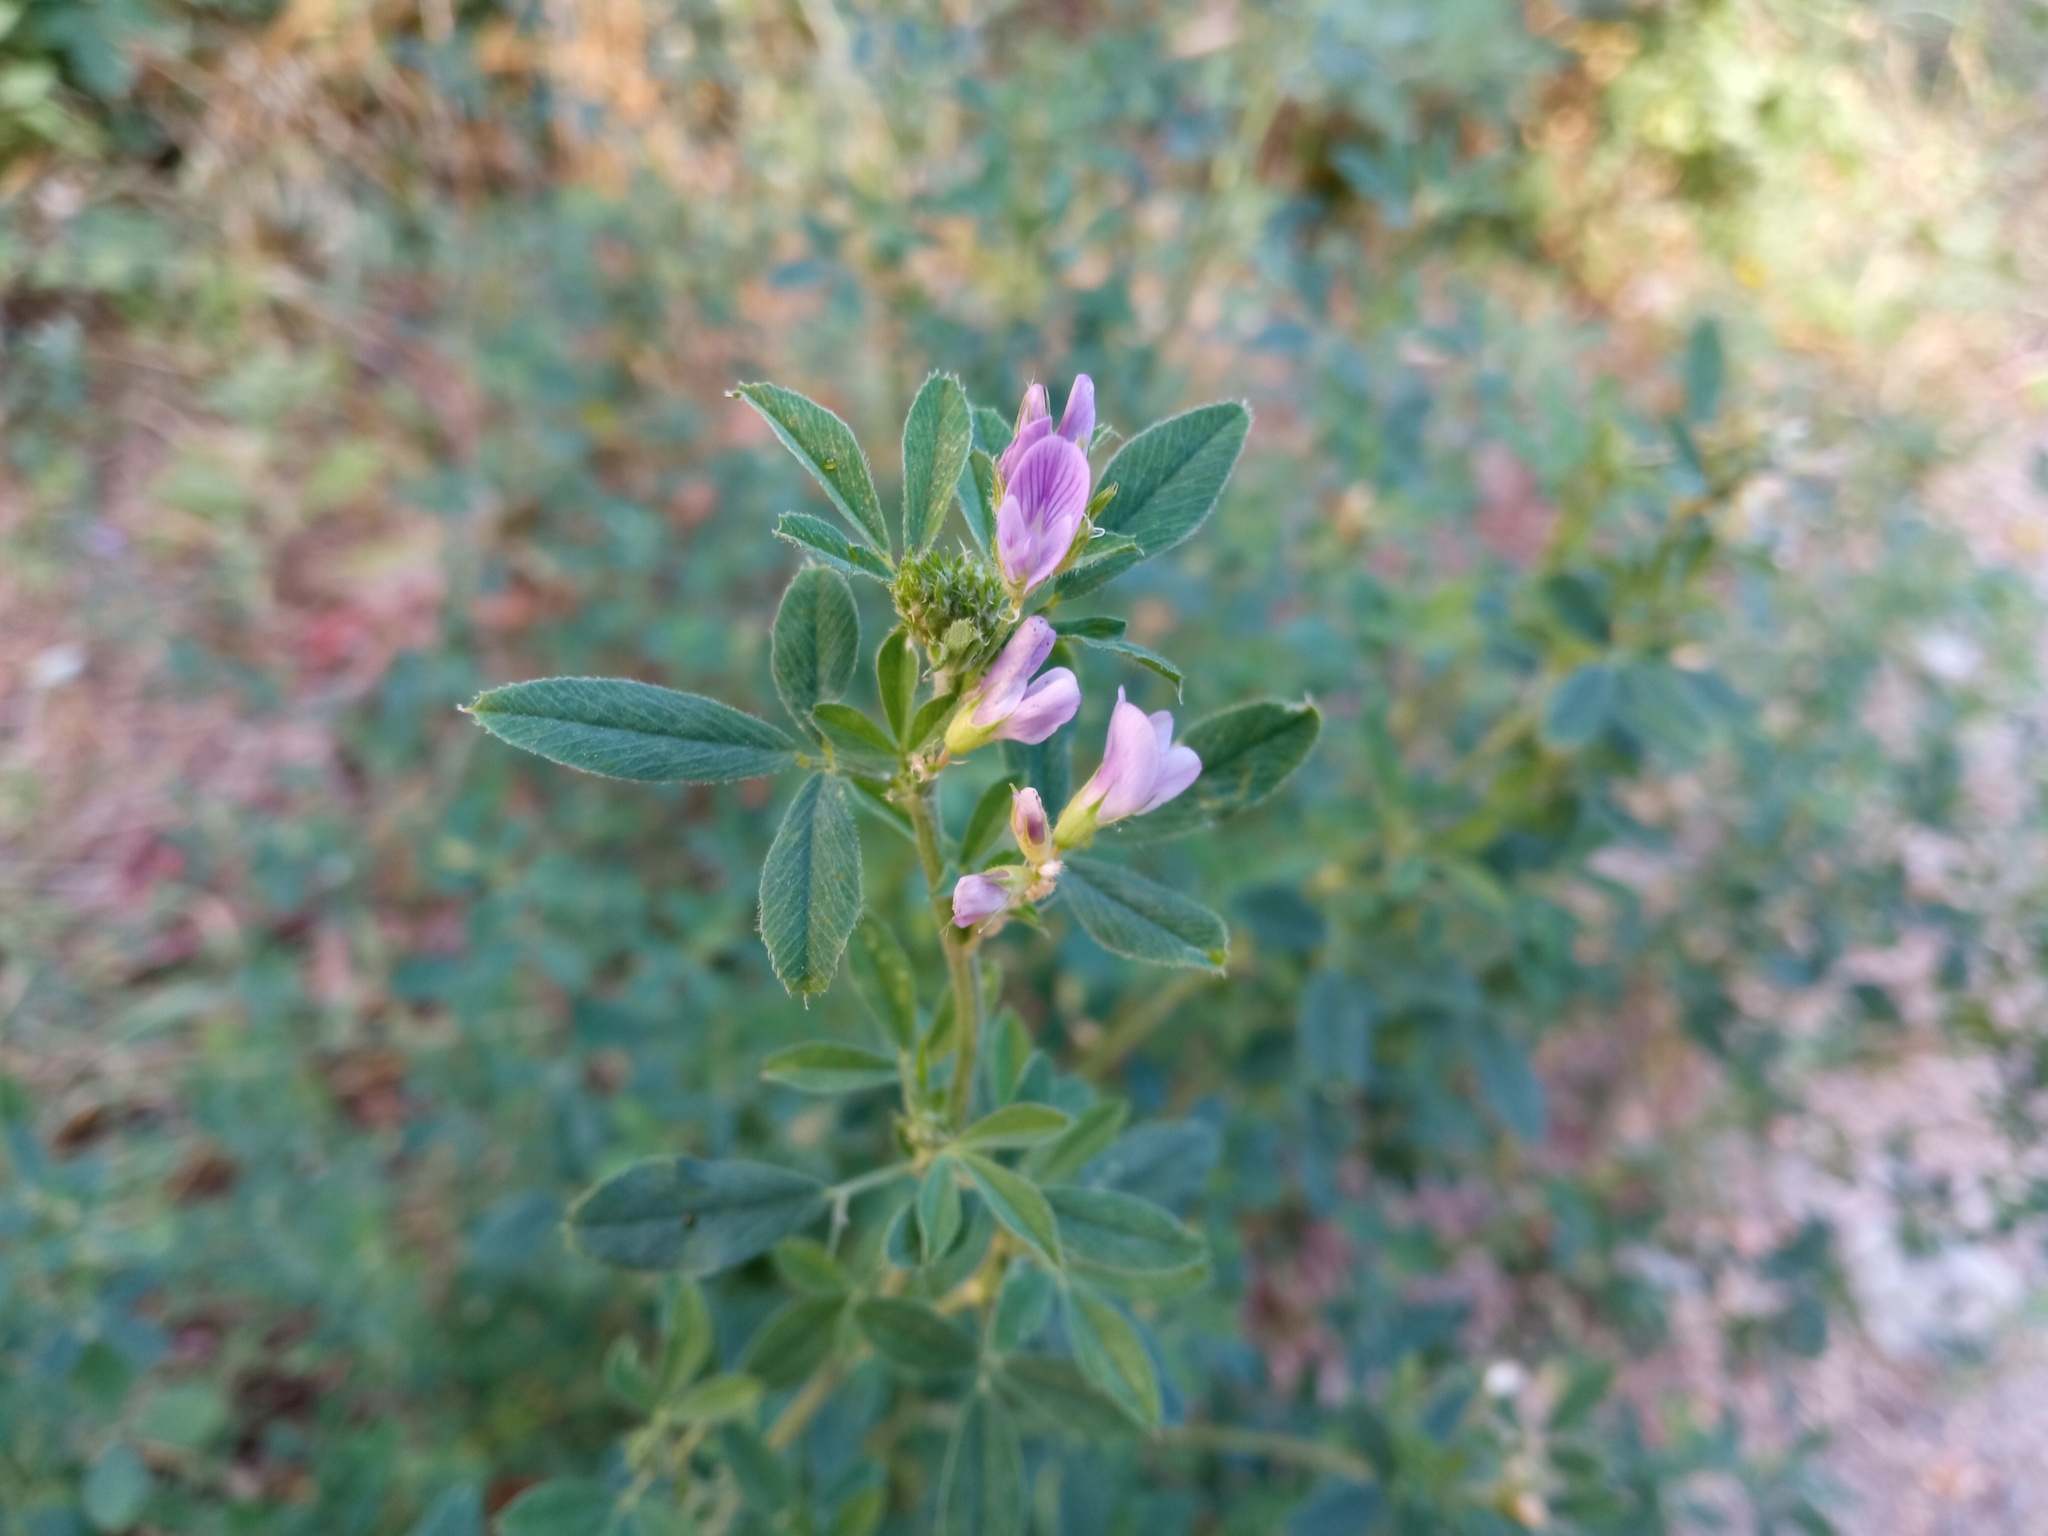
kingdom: Plantae
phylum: Tracheophyta
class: Magnoliopsida
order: Fabales
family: Fabaceae
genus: Medicago
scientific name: Medicago sativa
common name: Alfalfa
